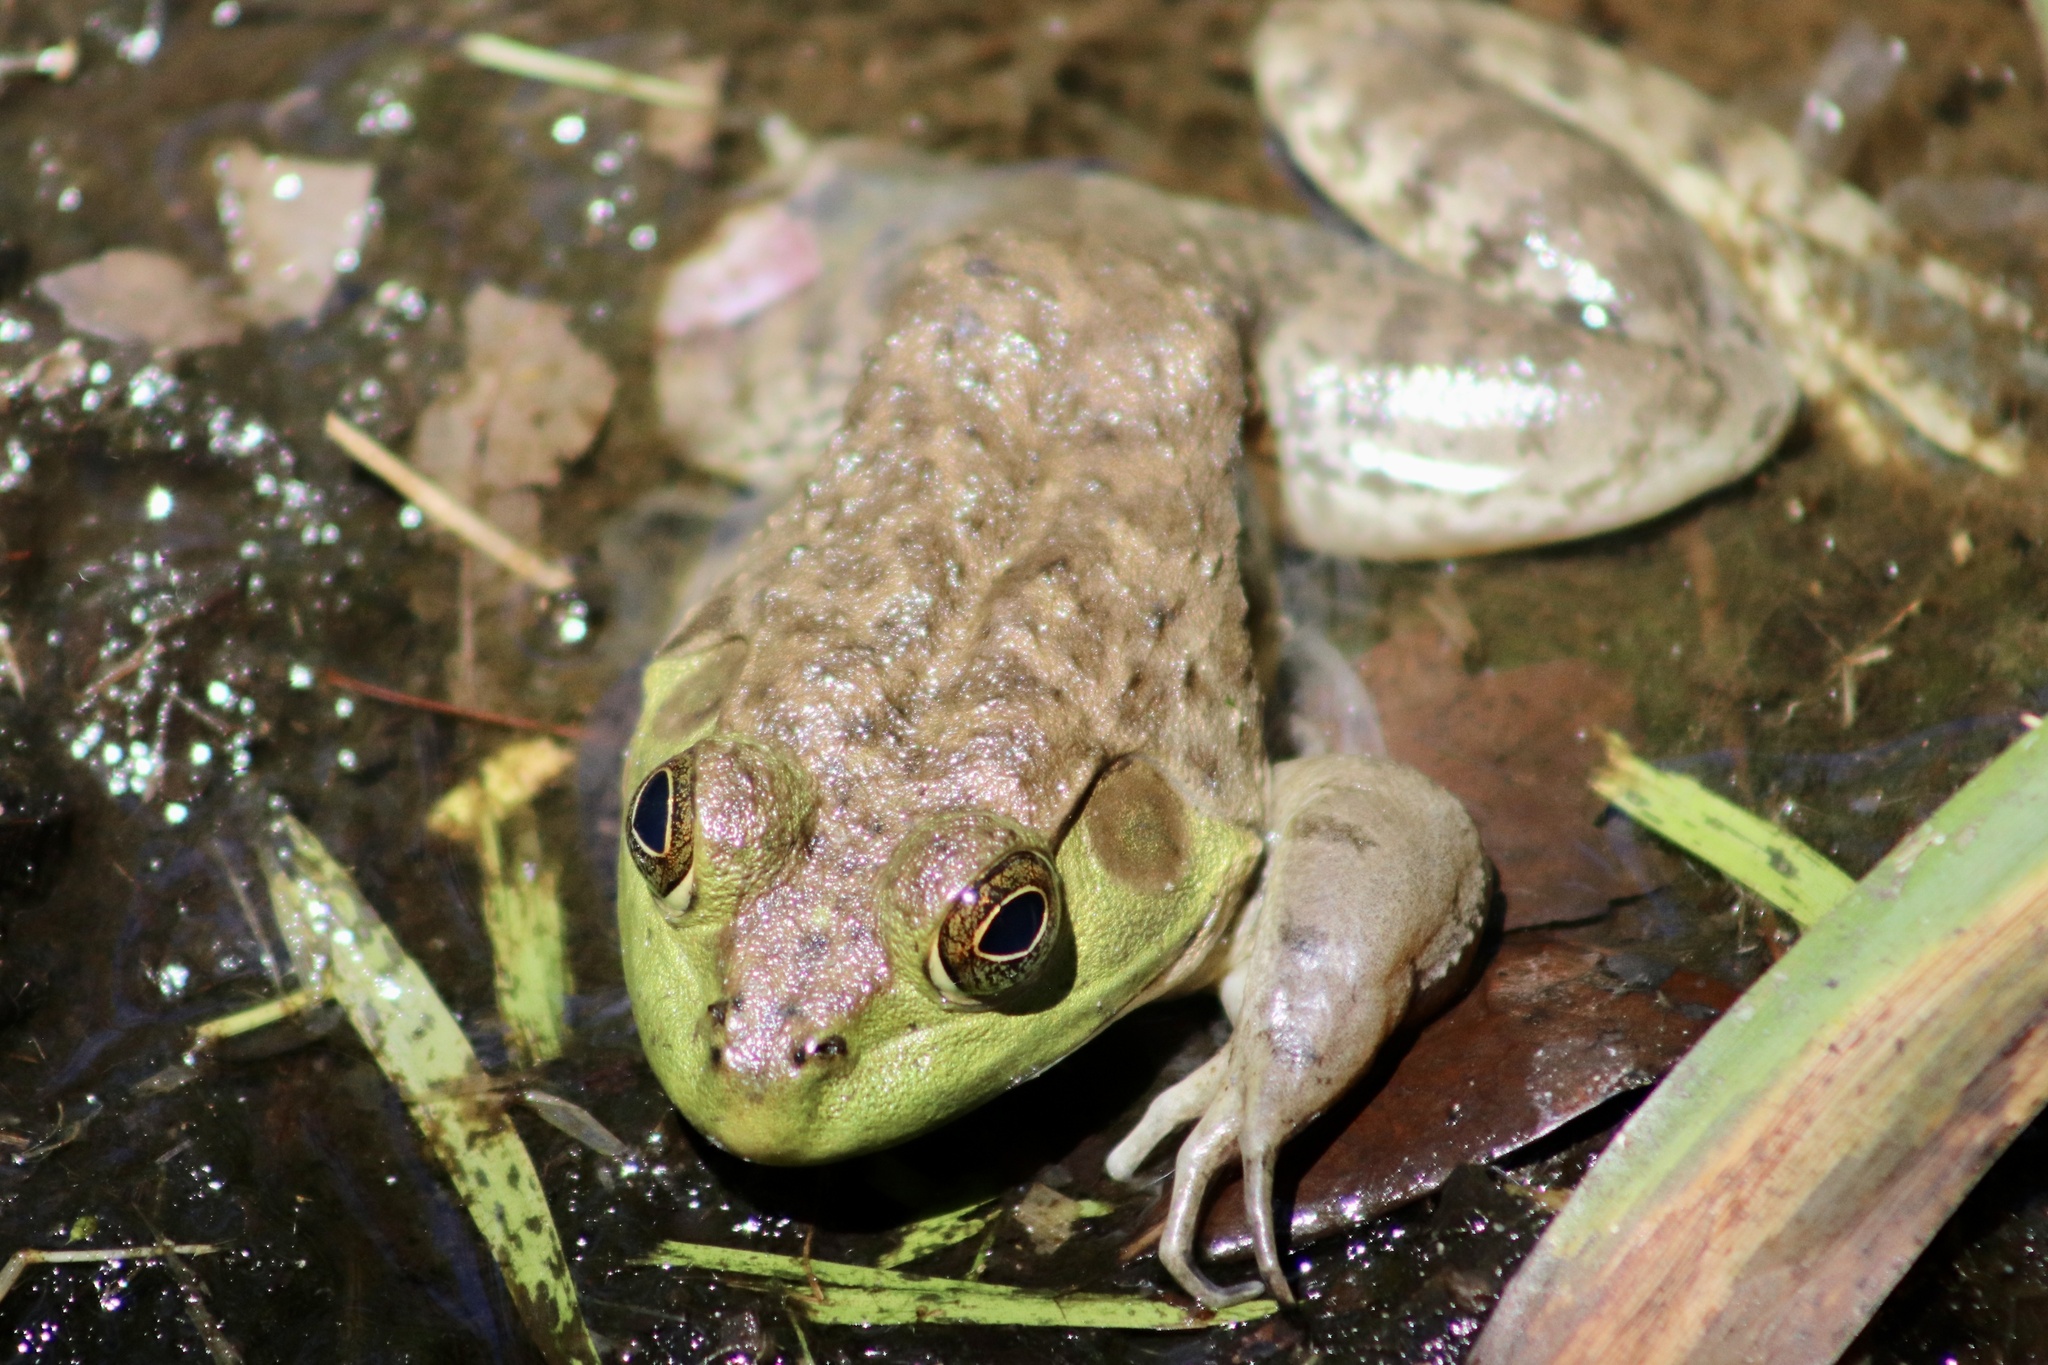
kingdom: Animalia
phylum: Chordata
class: Amphibia
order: Anura
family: Ranidae
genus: Lithobates
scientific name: Lithobates catesbeianus
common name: American bullfrog
